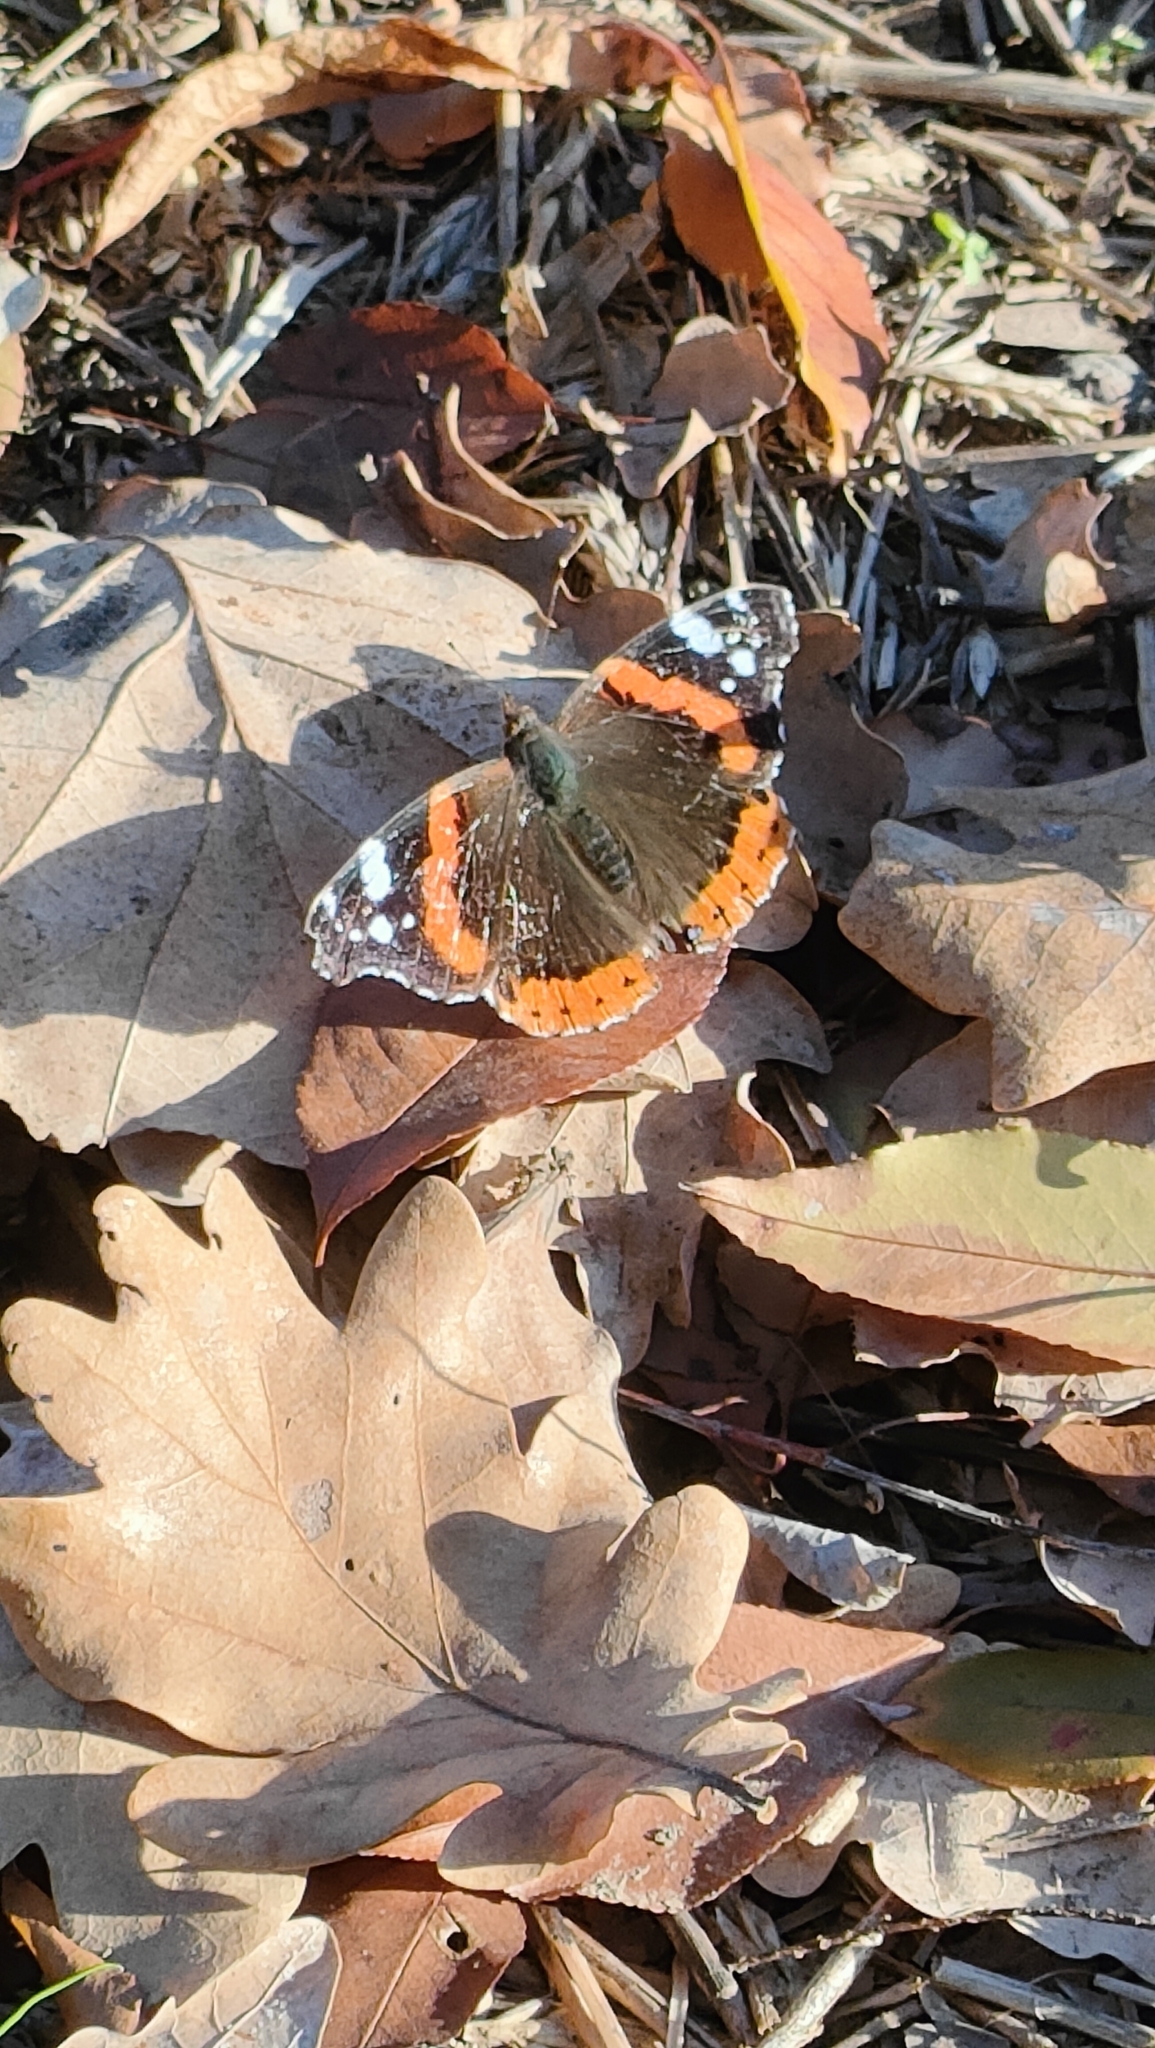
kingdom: Animalia
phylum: Arthropoda
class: Insecta
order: Lepidoptera
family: Nymphalidae
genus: Vanessa
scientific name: Vanessa atalanta
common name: Red admiral
